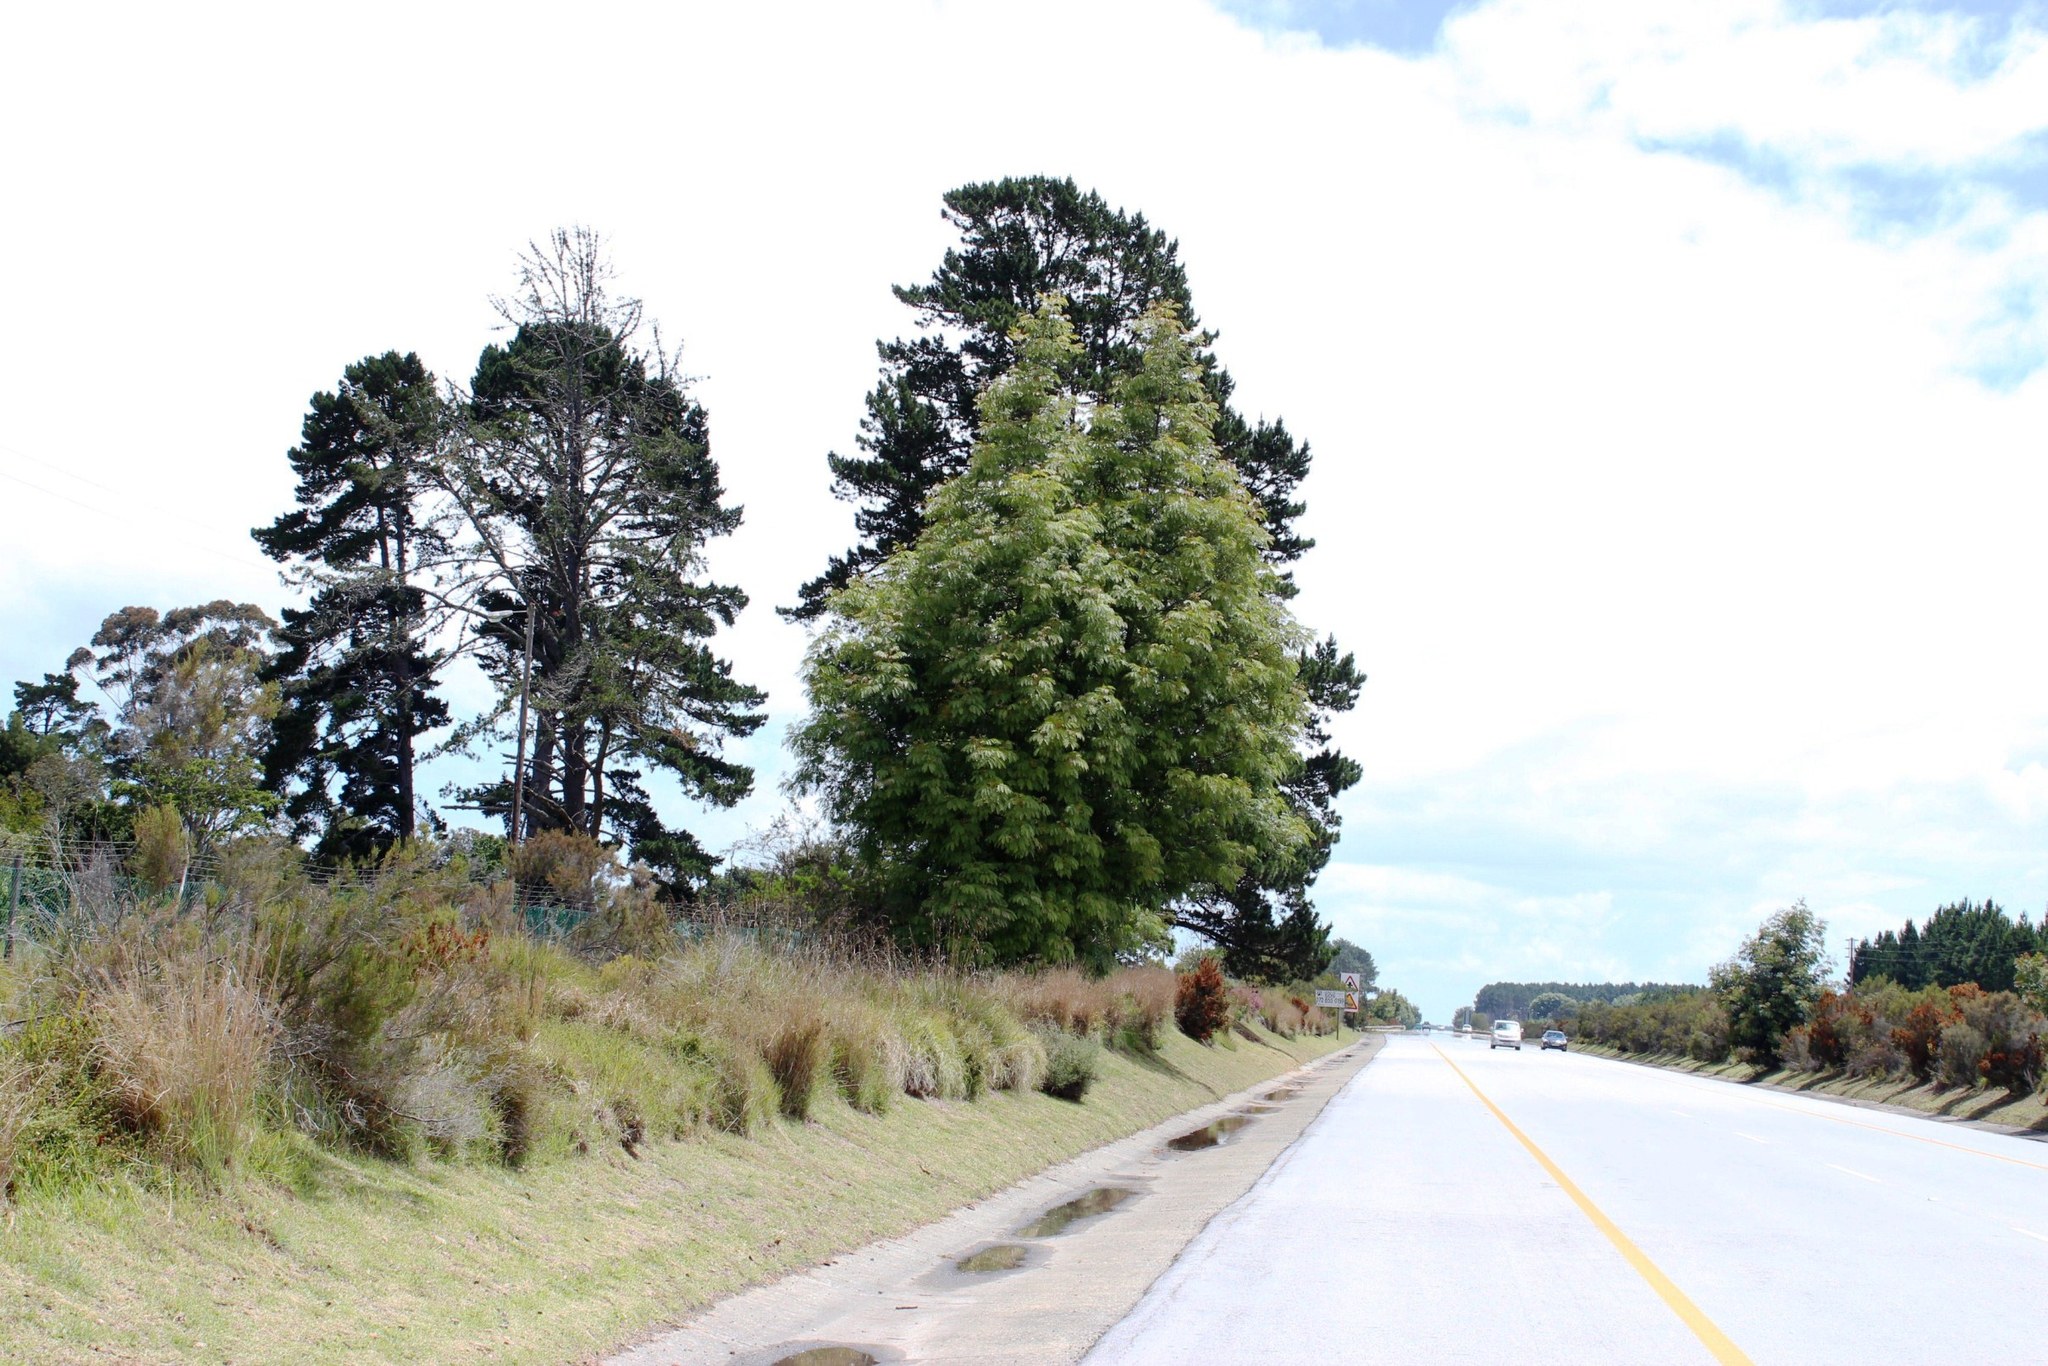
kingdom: Plantae
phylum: Tracheophyta
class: Magnoliopsida
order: Fabales
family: Fabaceae
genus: Acacia
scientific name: Acacia elata
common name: Cedar wattle
